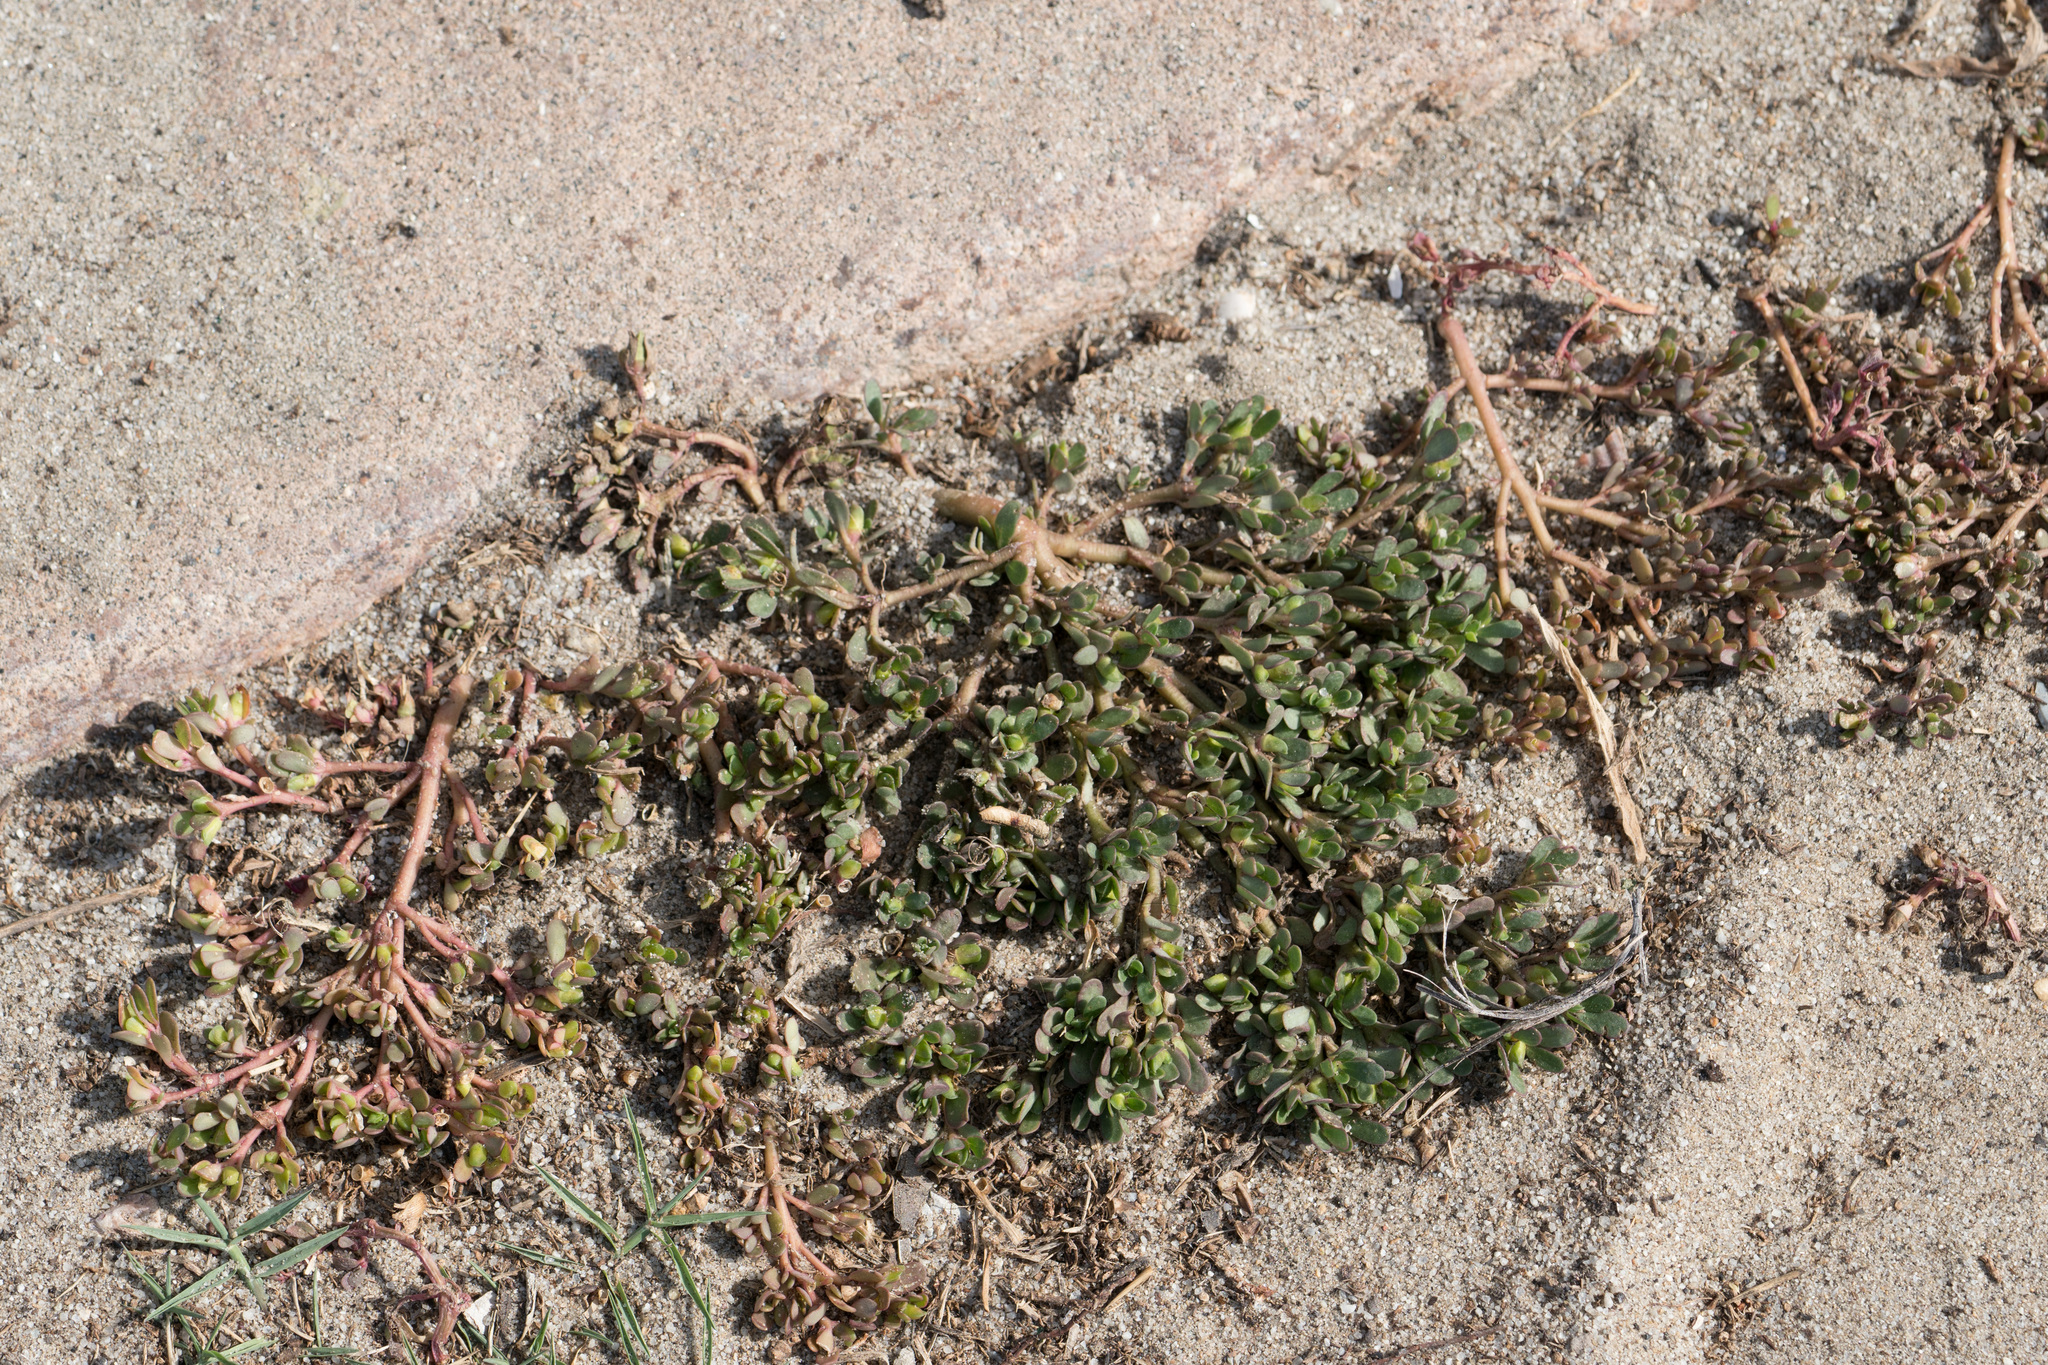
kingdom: Plantae
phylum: Tracheophyta
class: Magnoliopsida
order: Caryophyllales
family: Portulacaceae
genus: Portulaca
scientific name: Portulaca oleracea
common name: Common purslane
